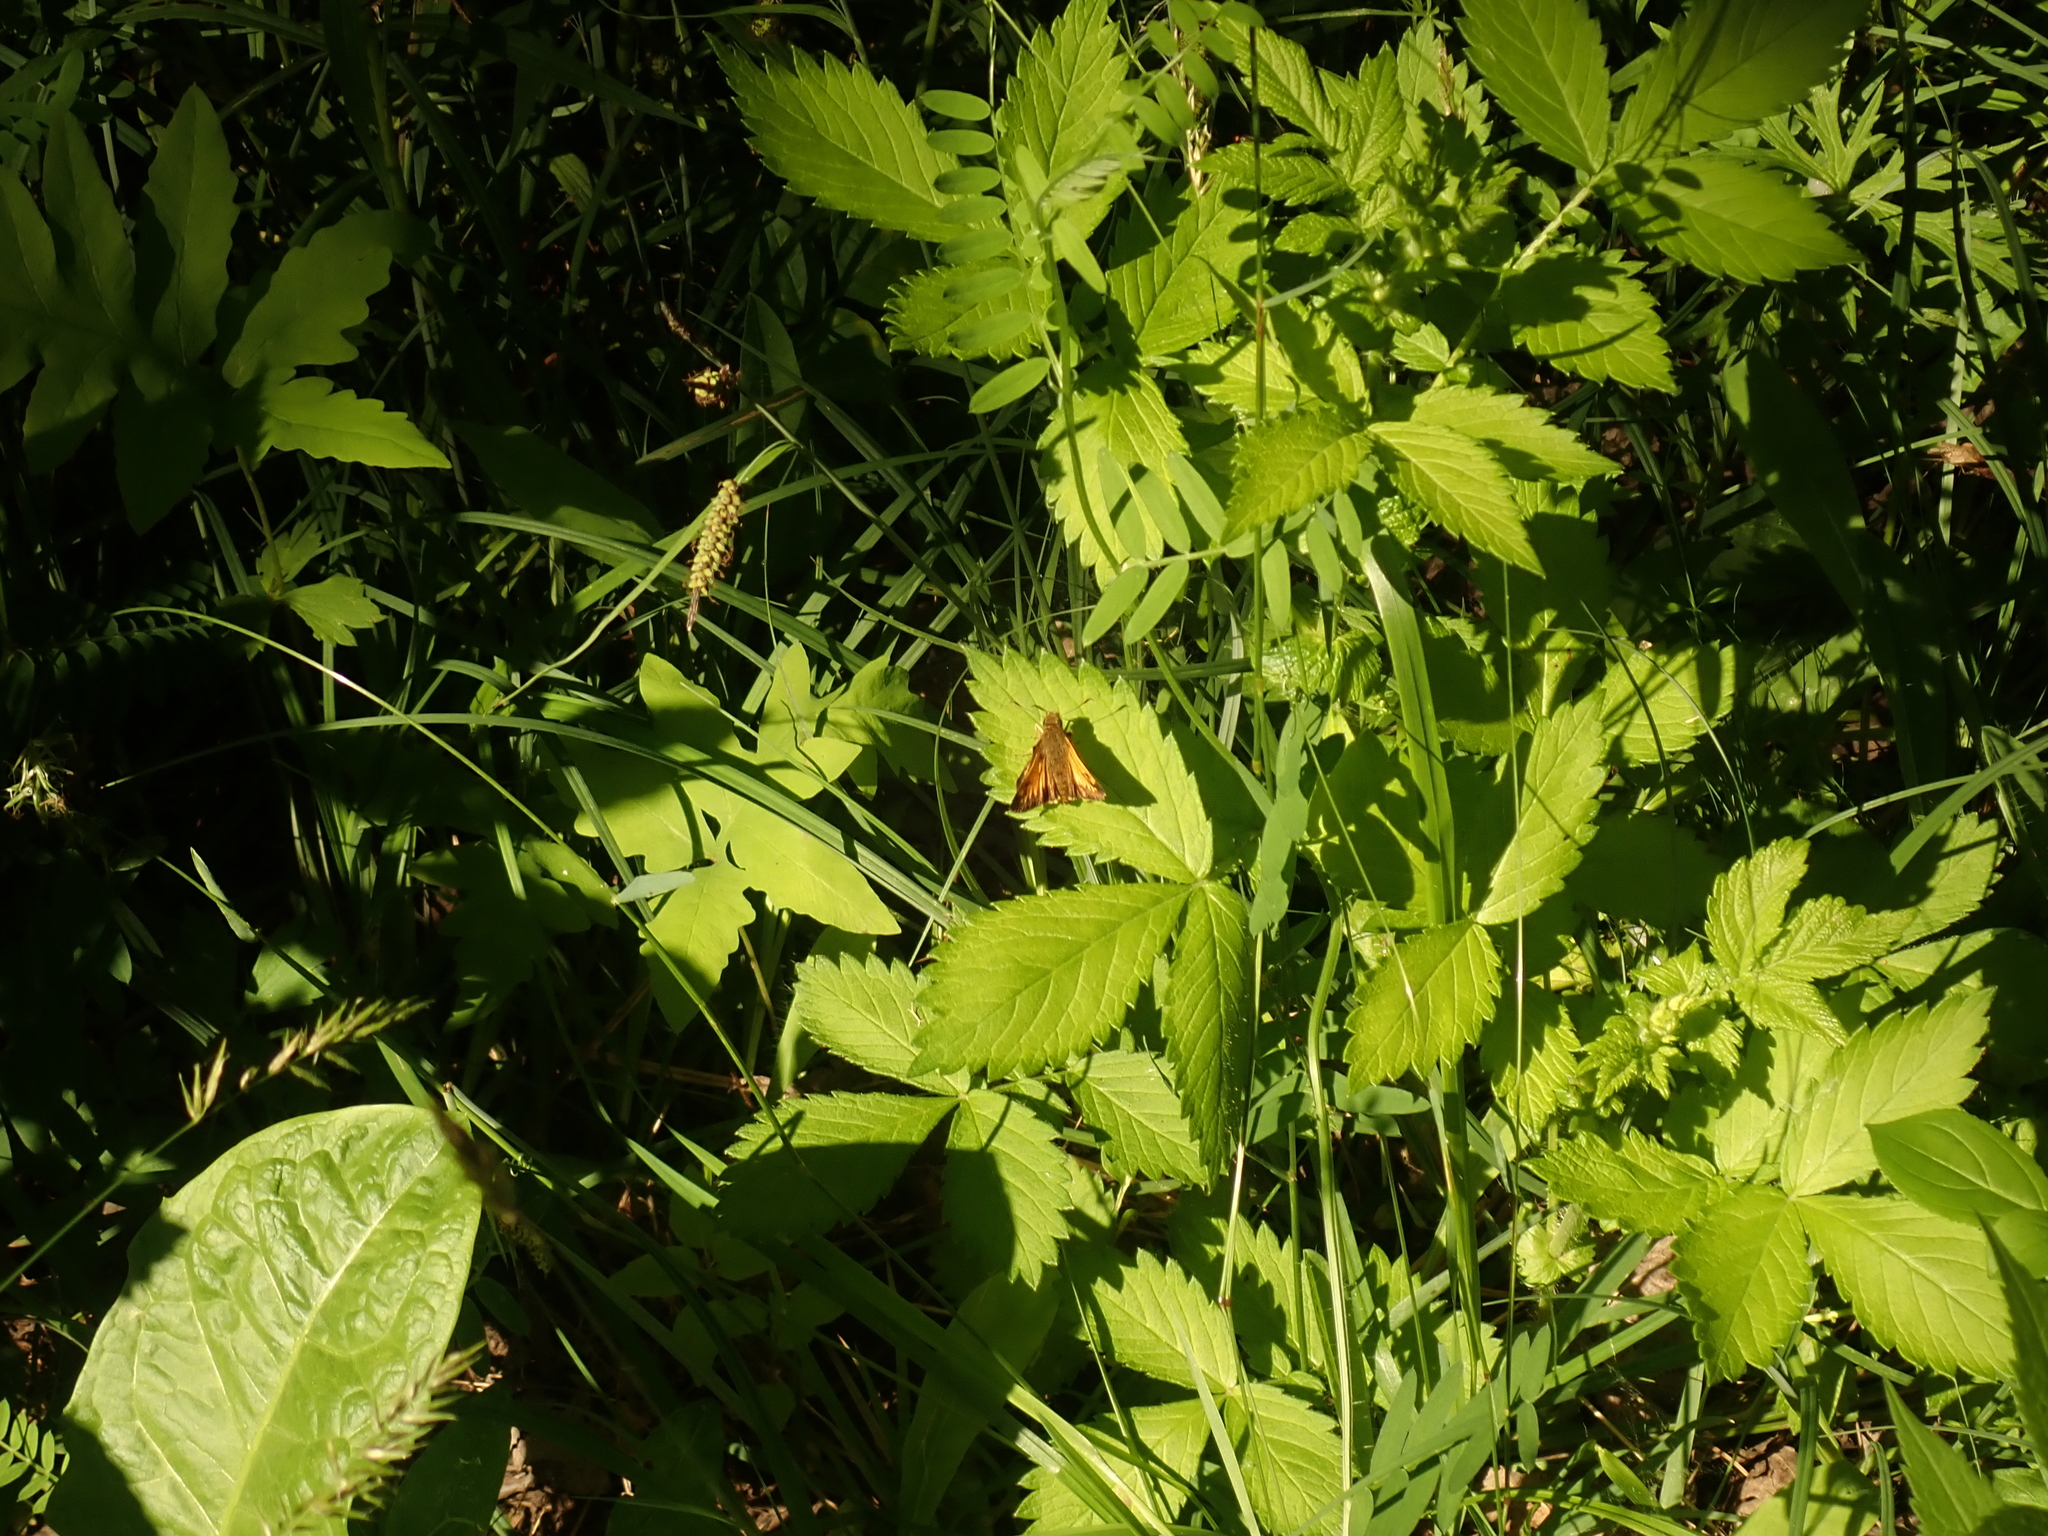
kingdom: Animalia
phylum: Arthropoda
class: Insecta
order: Lepidoptera
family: Hesperiidae
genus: Lon
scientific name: Lon hobomok
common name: Hobomok skipper
